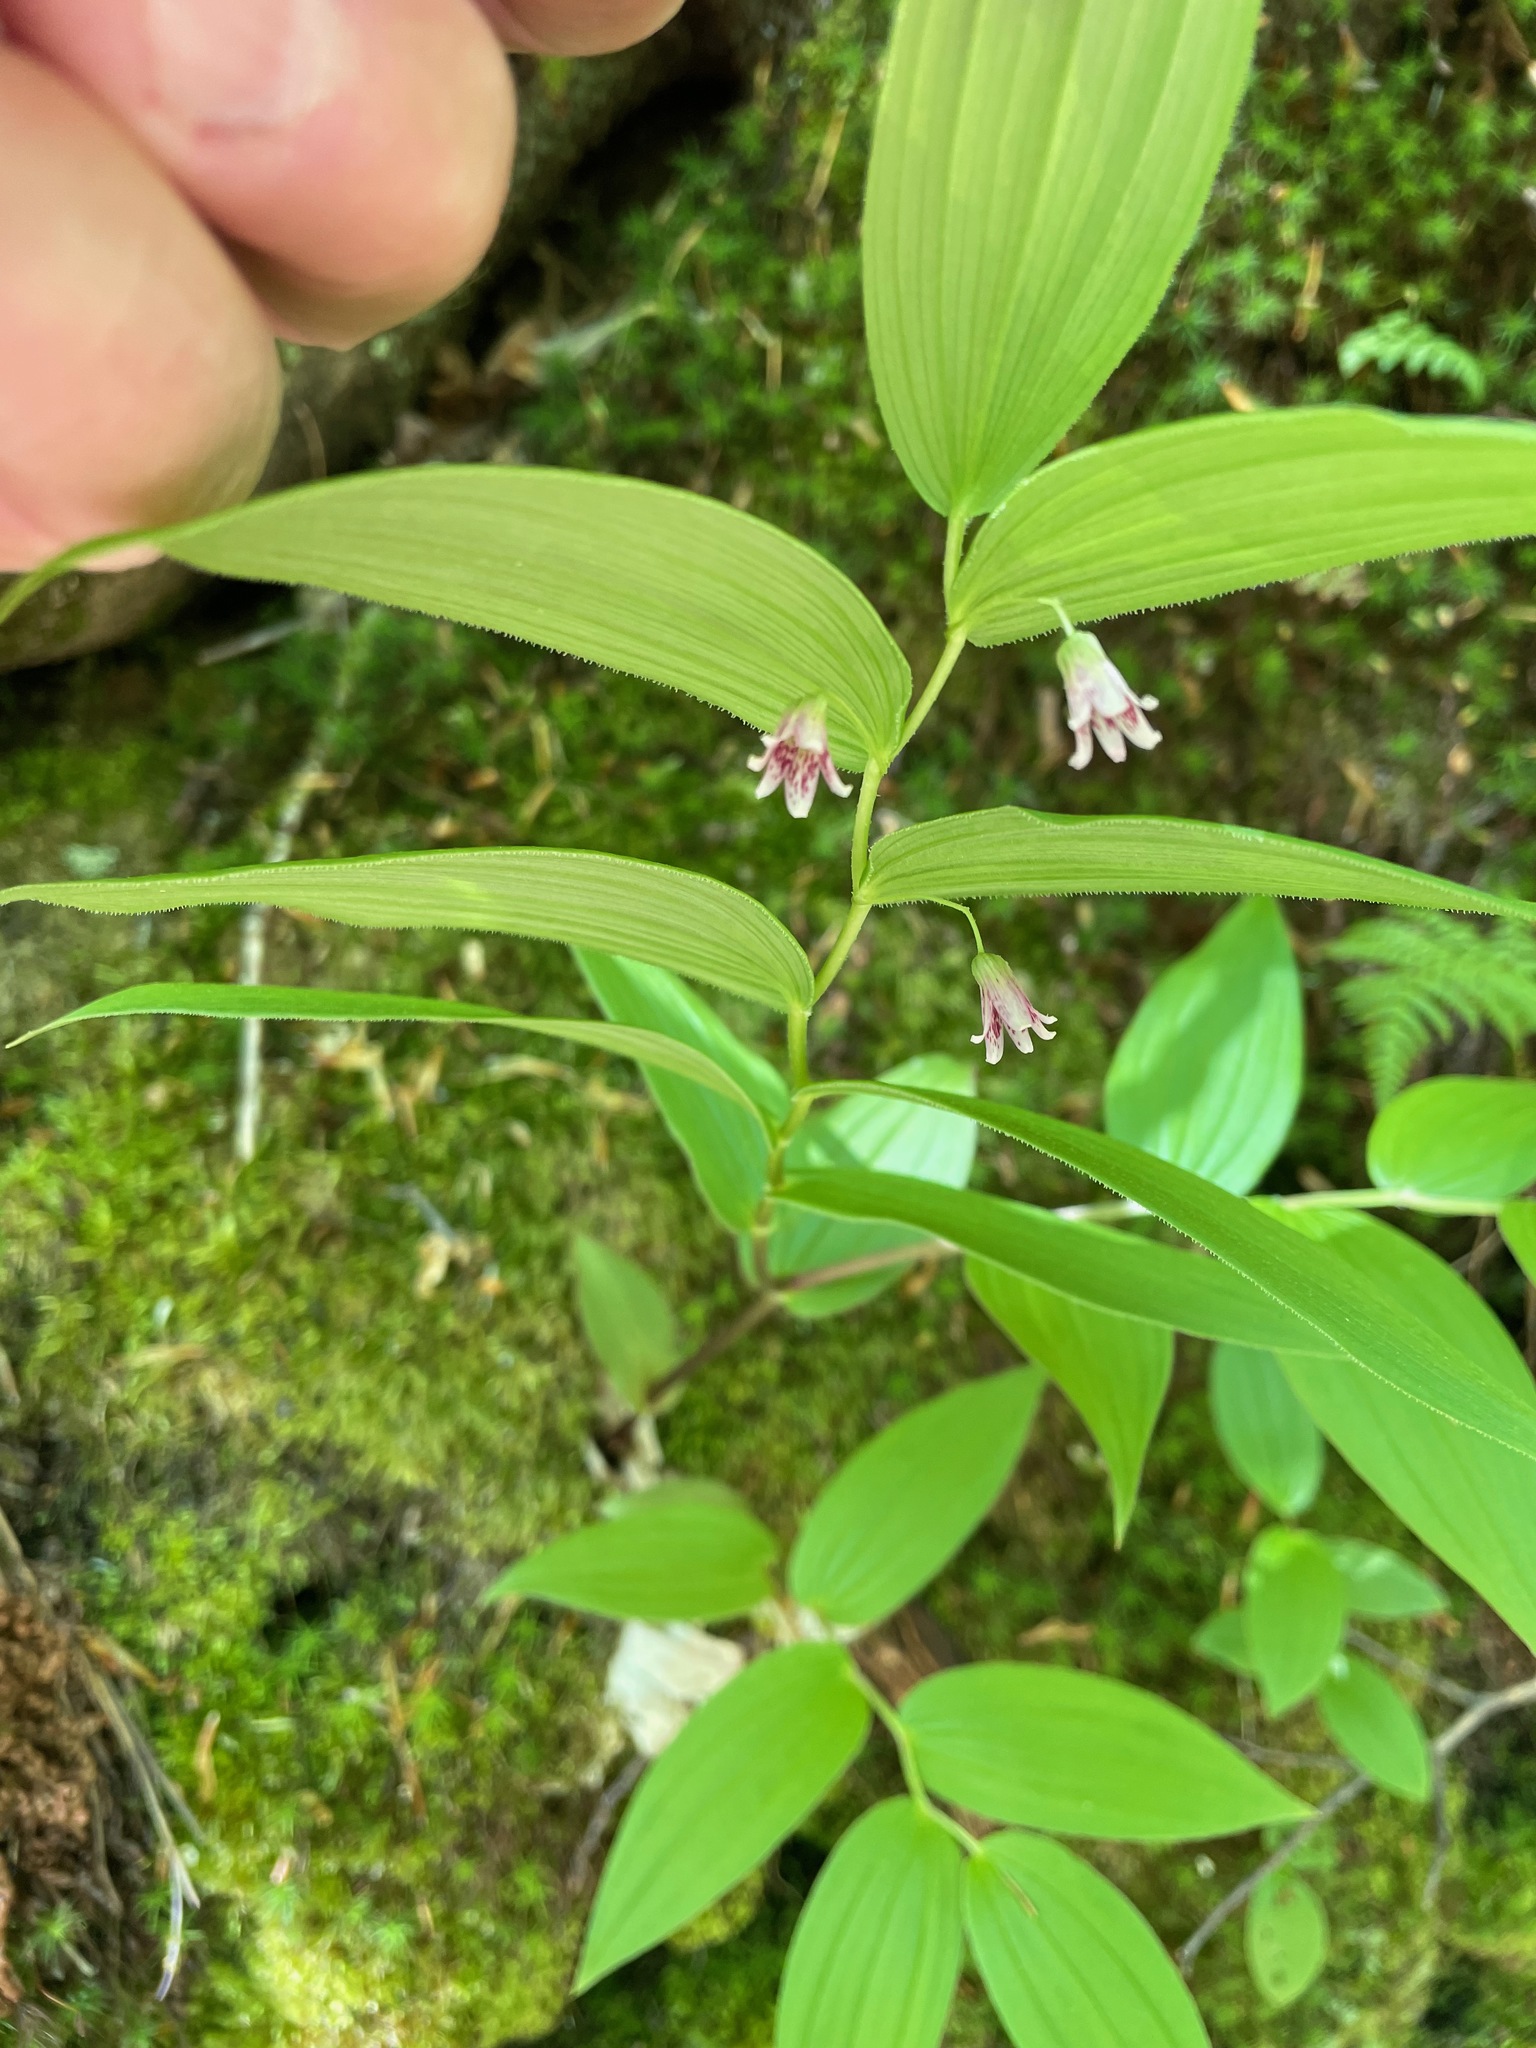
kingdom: Plantae
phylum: Tracheophyta
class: Liliopsida
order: Liliales
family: Liliaceae
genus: Streptopus
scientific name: Streptopus lanceolatus
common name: Rose mandarin
